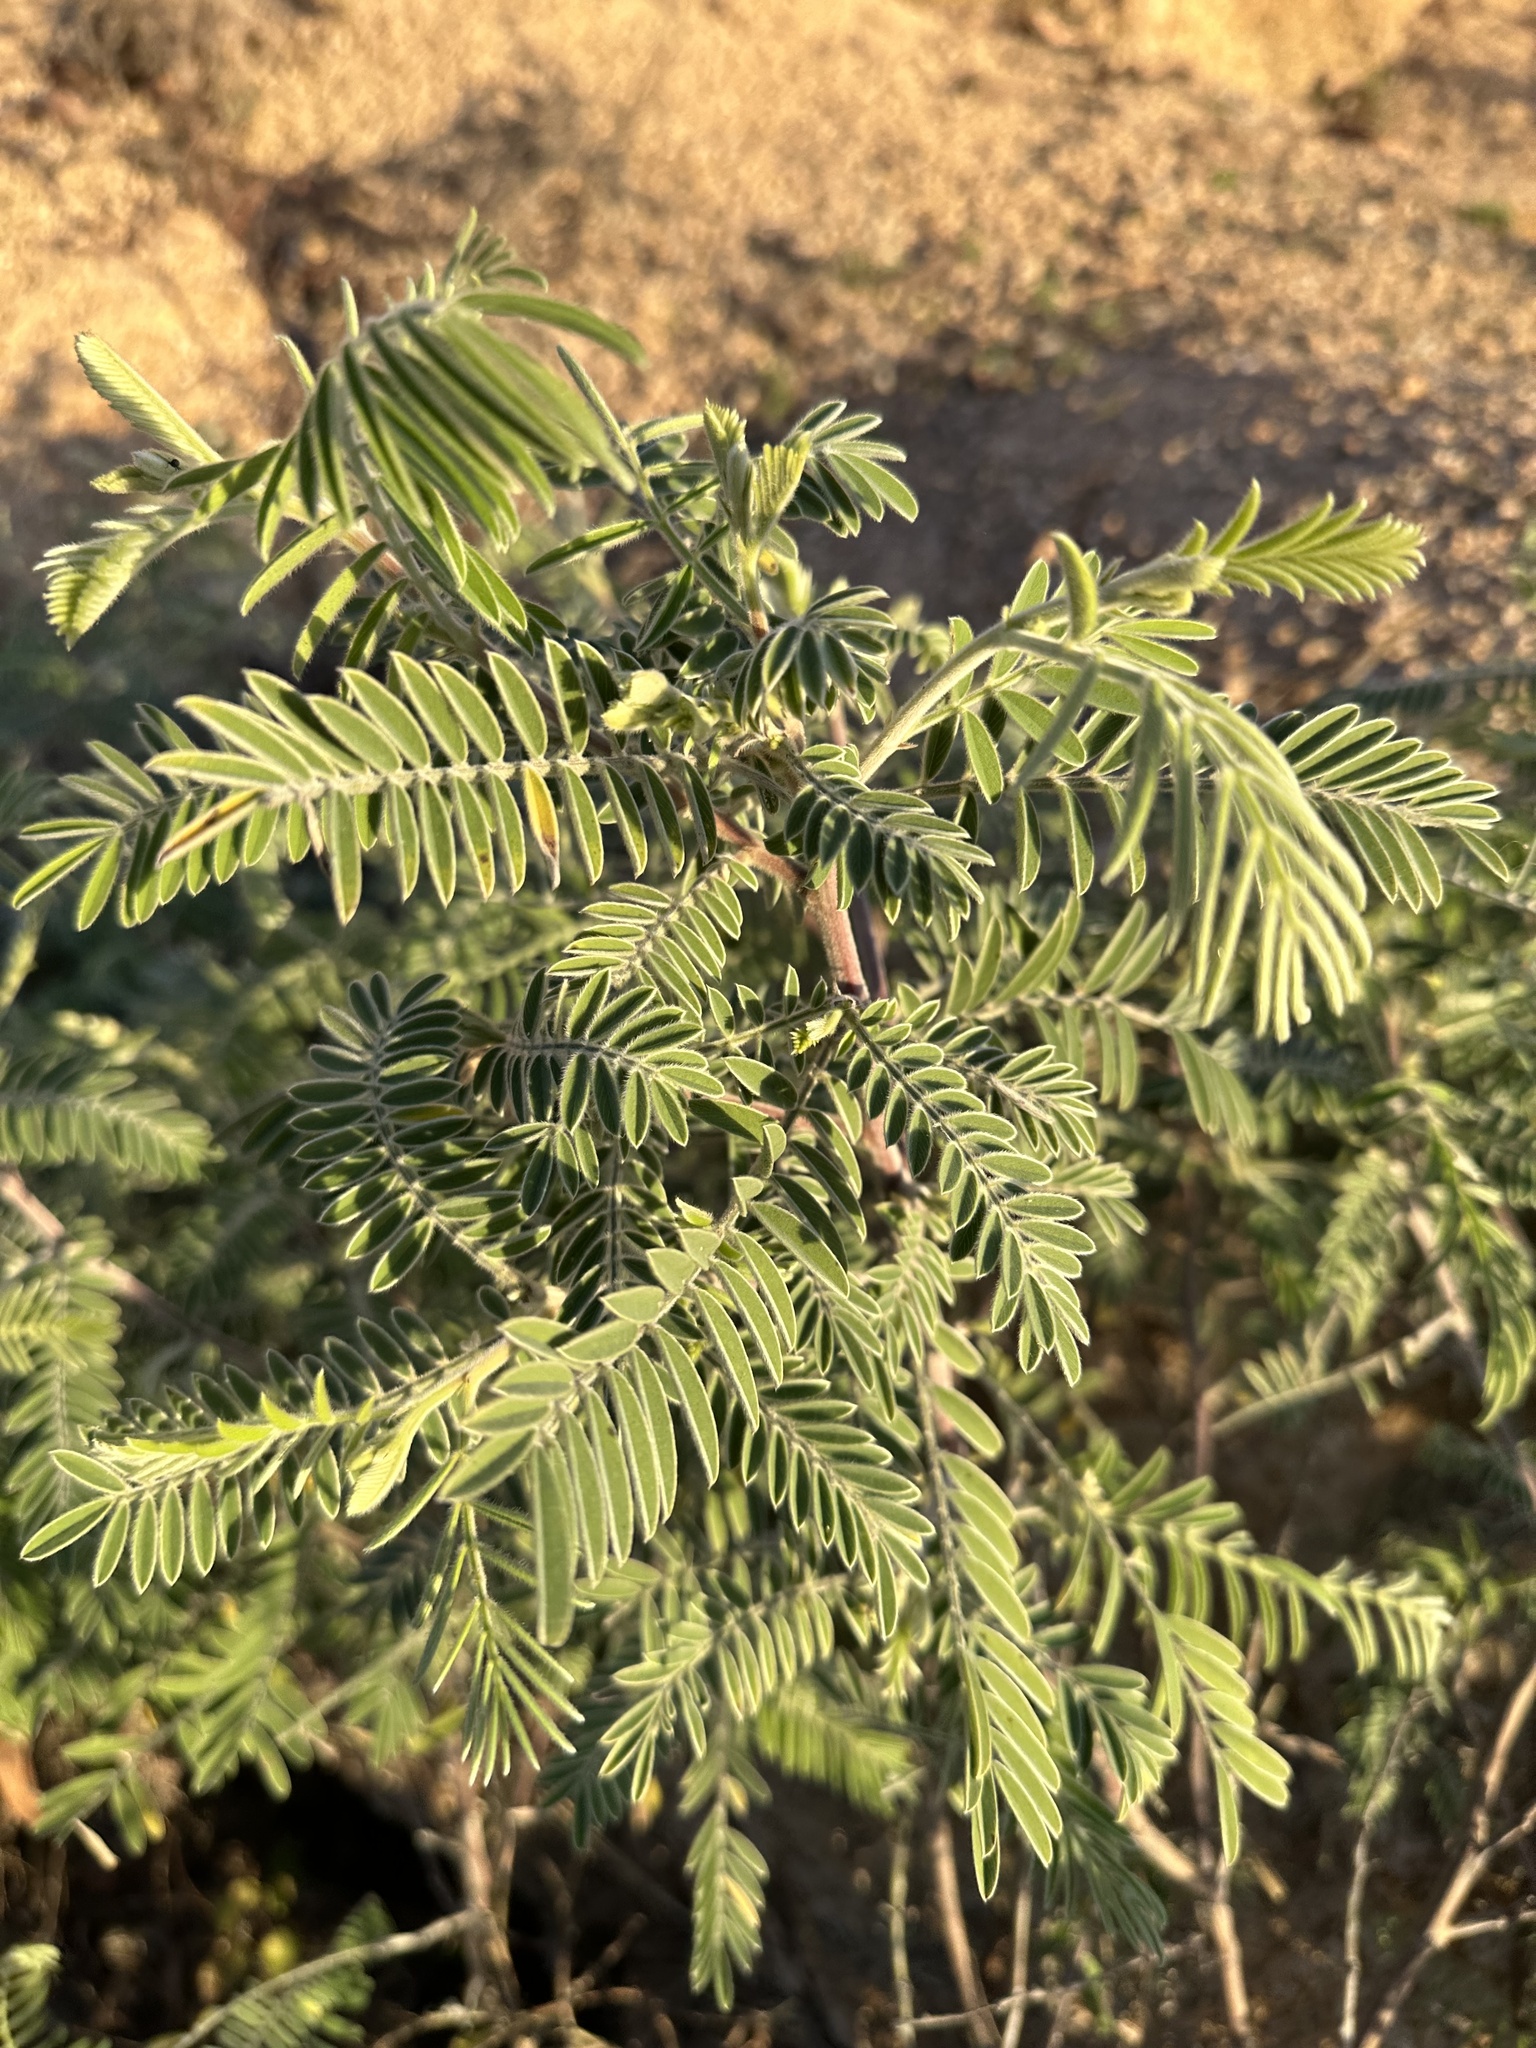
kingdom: Plantae
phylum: Tracheophyta
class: Magnoliopsida
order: Fabales
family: Fabaceae
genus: Sophora
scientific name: Sophora tomentosa
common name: Yellow necklacepod
